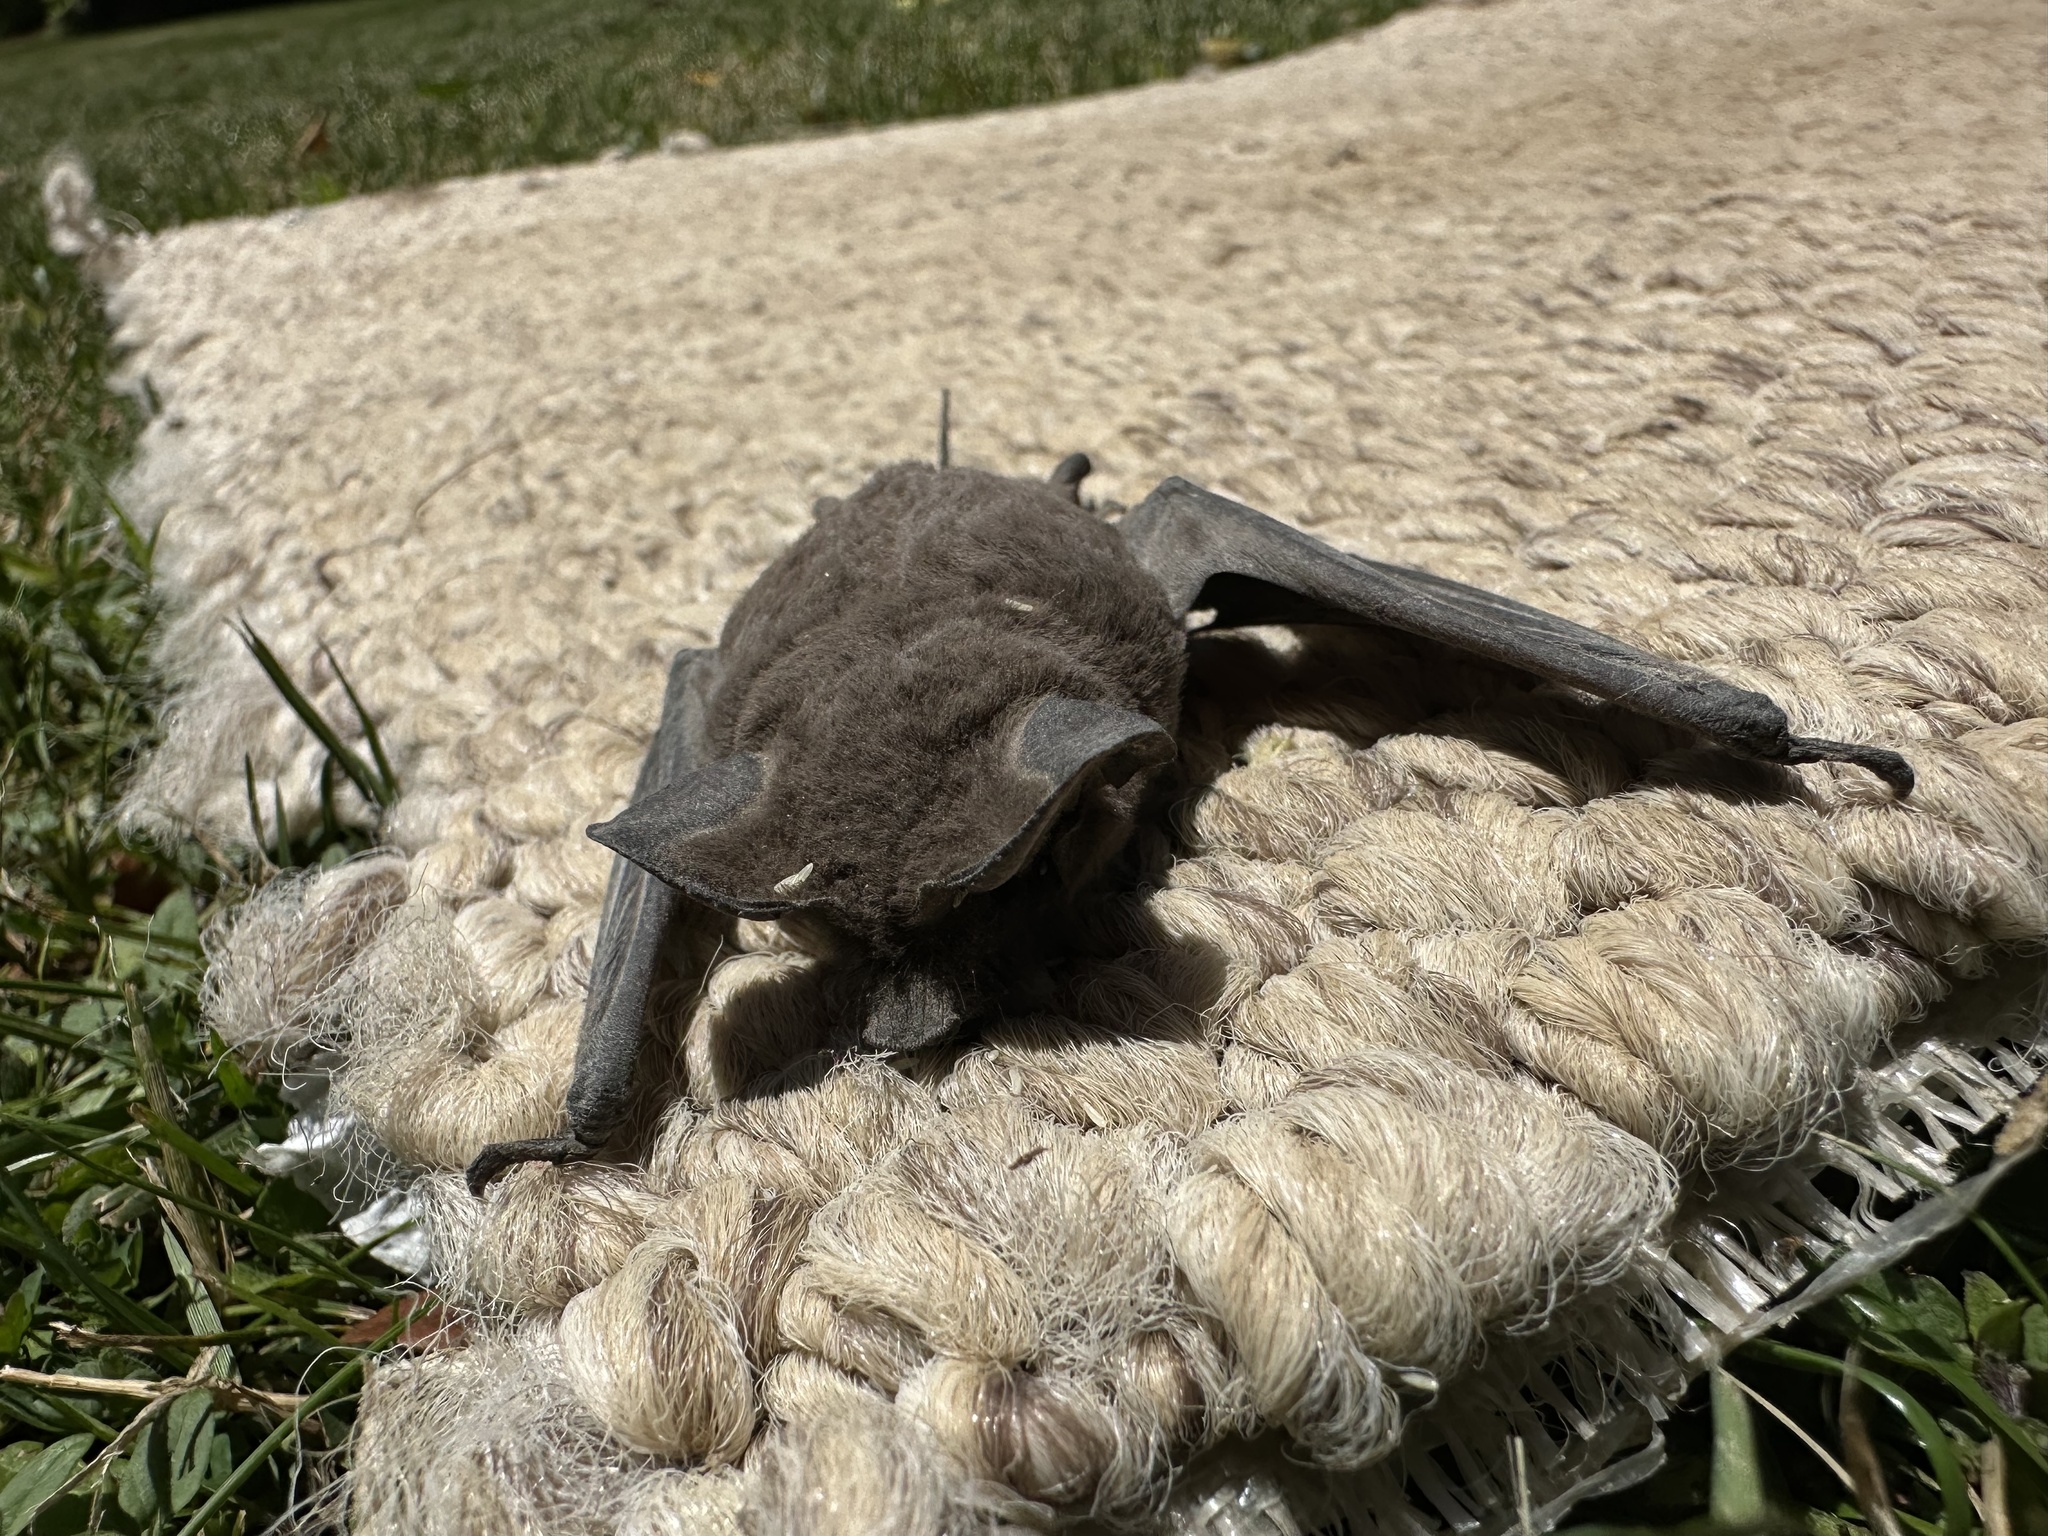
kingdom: Animalia
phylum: Chordata
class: Mammalia
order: Chiroptera
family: Molossidae
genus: Tadarida
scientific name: Tadarida brasiliensis
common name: Mexican free-tailed bat
